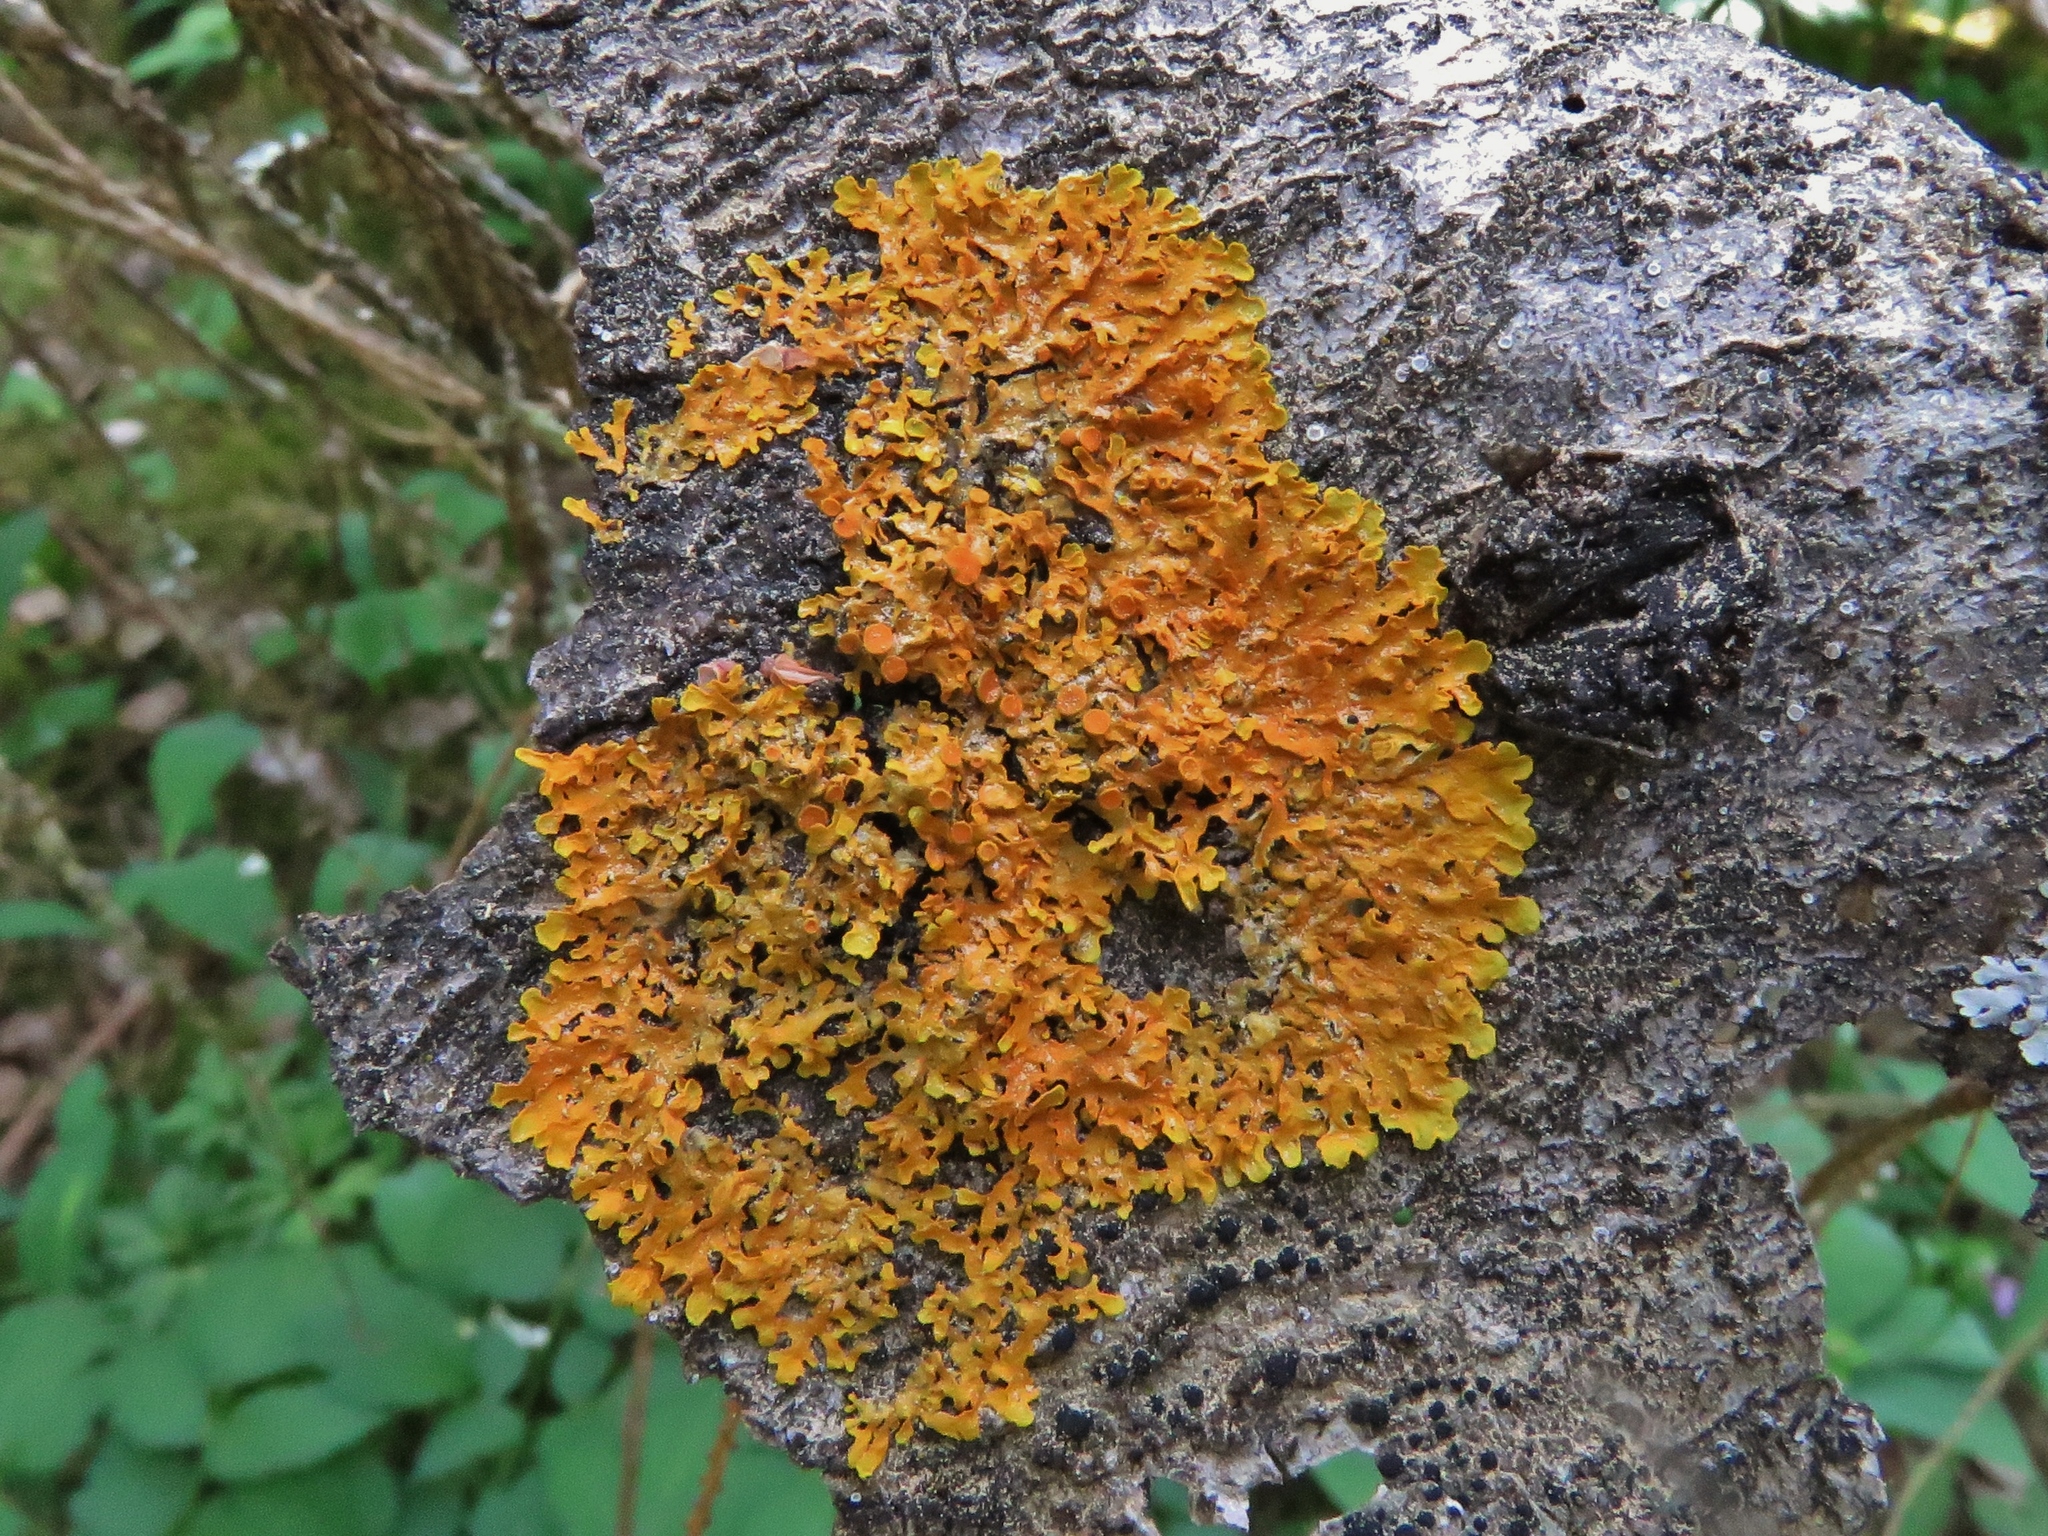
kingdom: Fungi
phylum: Ascomycota
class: Lecanoromycetes
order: Teloschistales
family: Teloschistaceae
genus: Xanthoria
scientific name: Xanthoria parietina
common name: Common orange lichen
